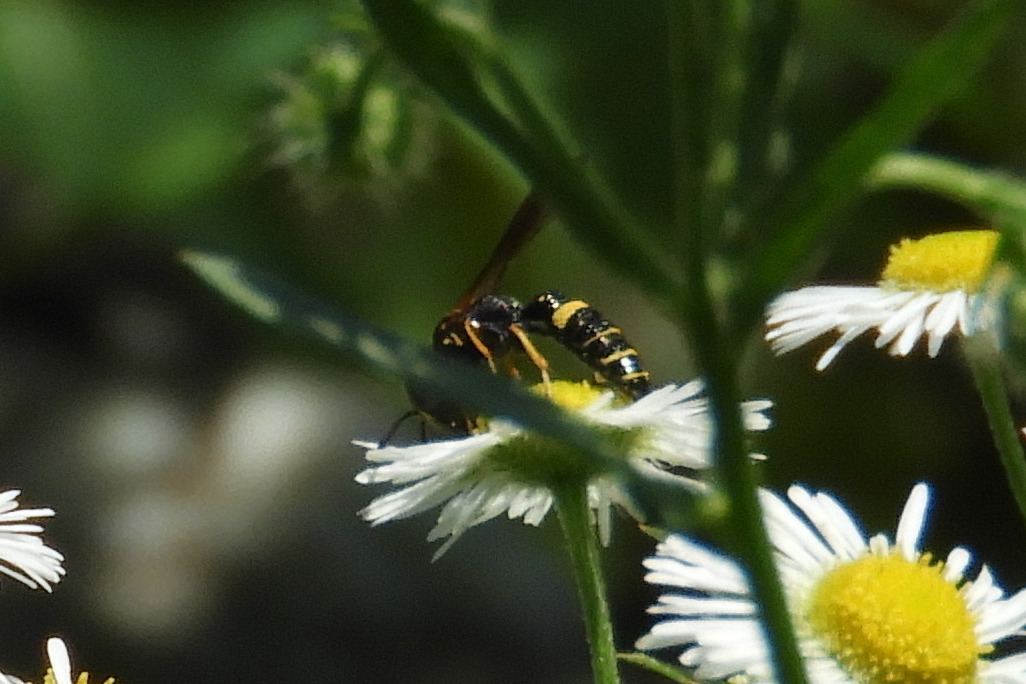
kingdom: Animalia
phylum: Arthropoda
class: Insecta
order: Hymenoptera
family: Crabronidae
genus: Philanthus
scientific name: Philanthus gibbosus
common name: Humped beewolf
